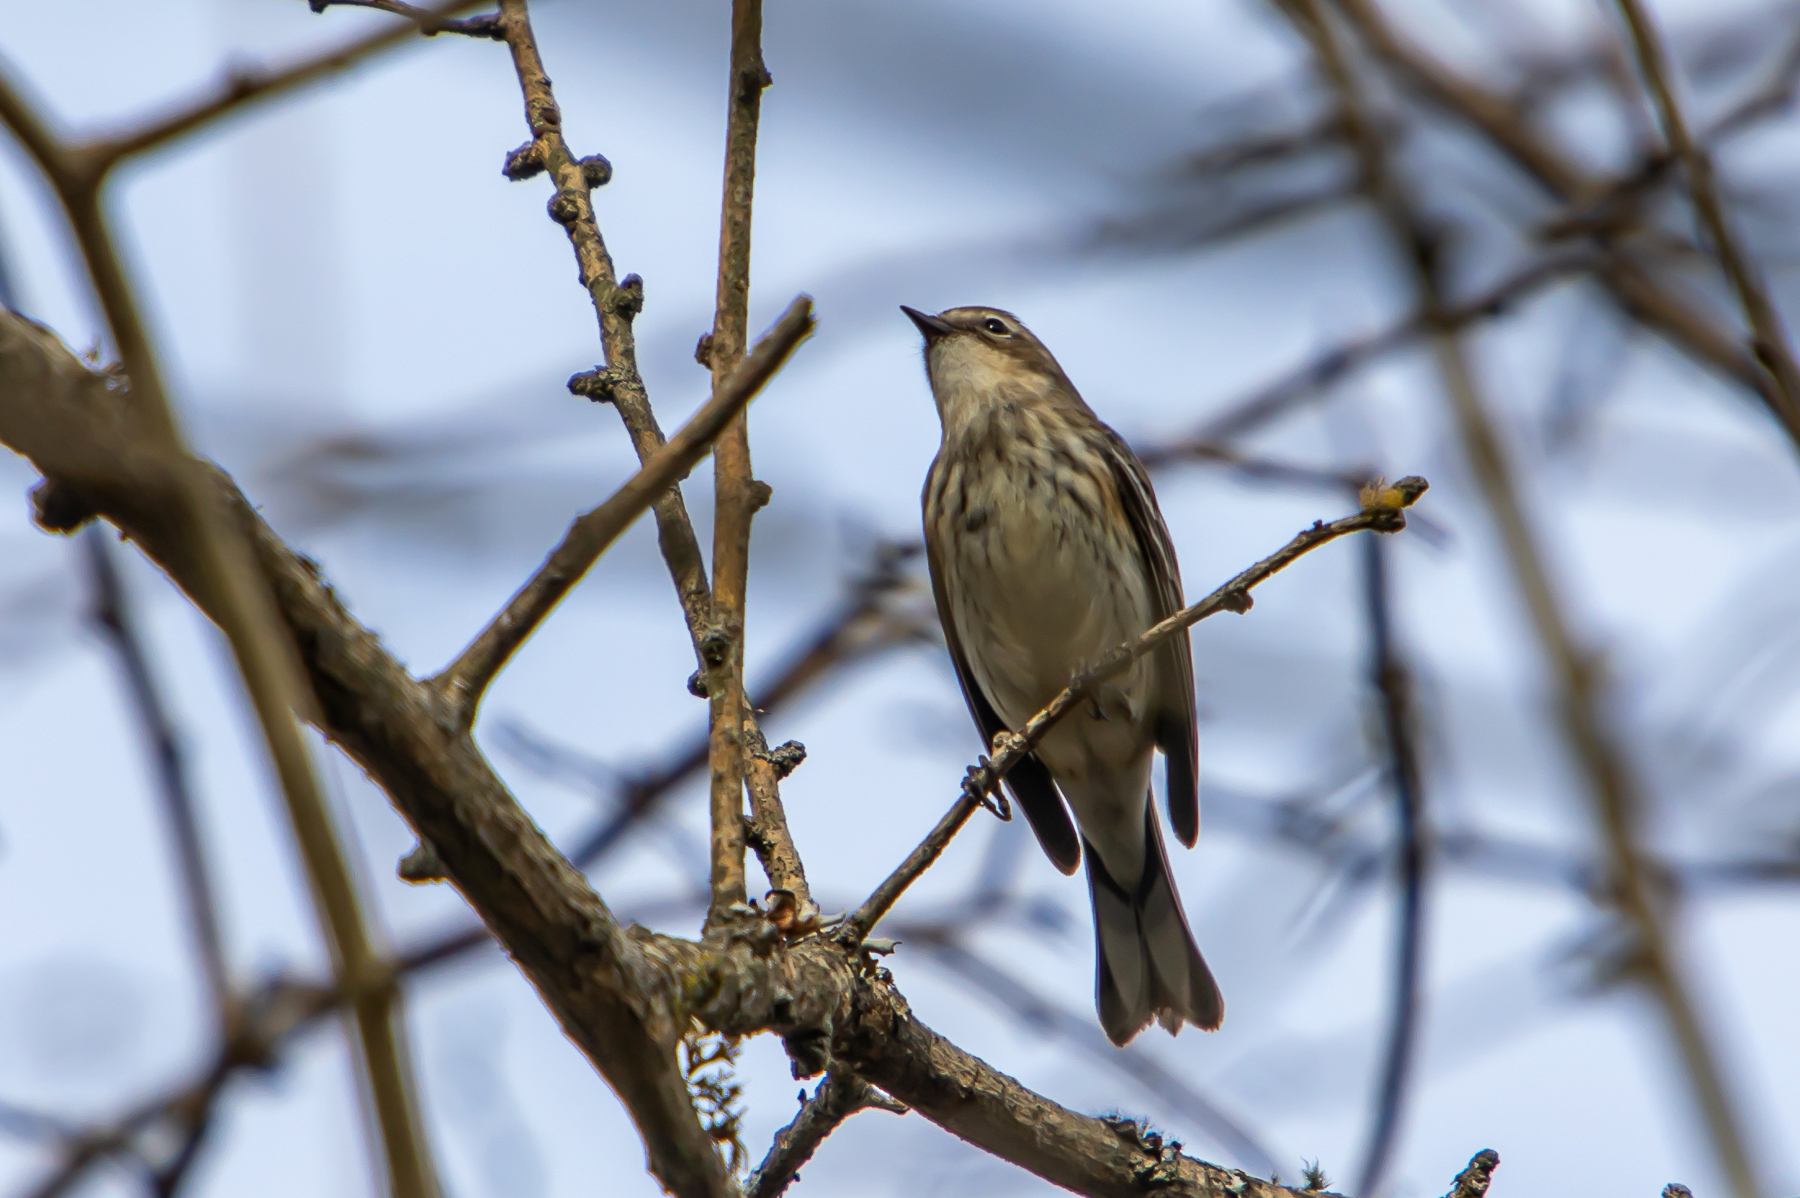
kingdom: Animalia
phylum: Chordata
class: Aves
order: Passeriformes
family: Parulidae
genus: Setophaga
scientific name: Setophaga coronata
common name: Myrtle warbler
